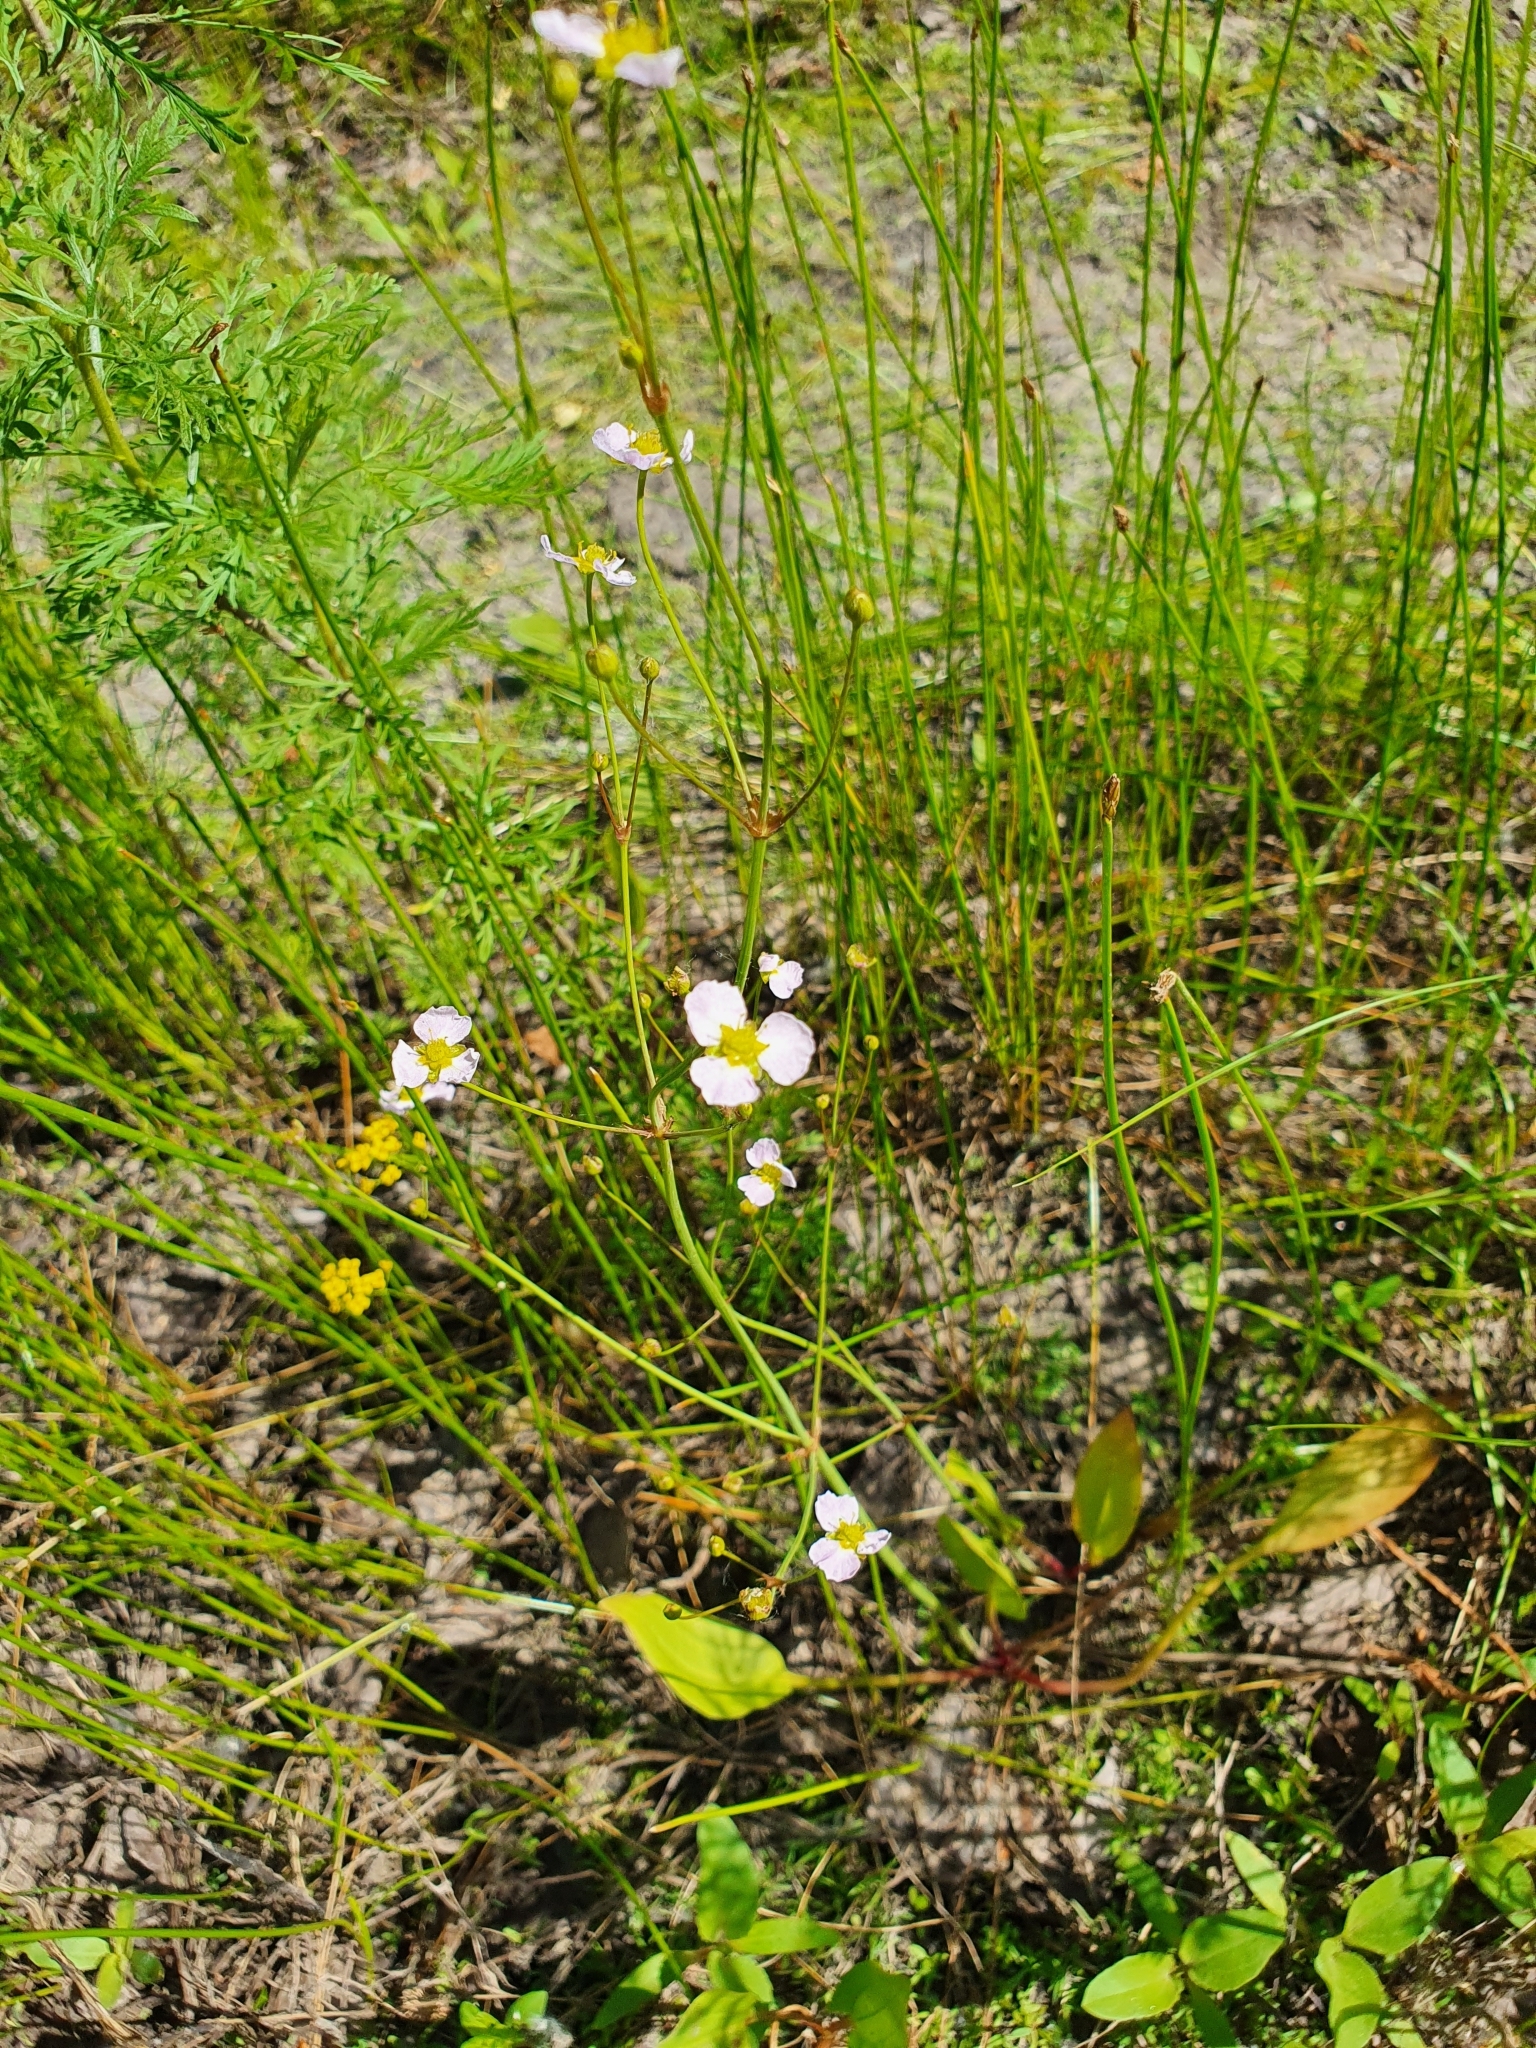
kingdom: Plantae
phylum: Tracheophyta
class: Liliopsida
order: Alismatales
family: Alismataceae
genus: Alisma
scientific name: Alisma lanceolatum
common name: Narrow-leaved water-plantain
